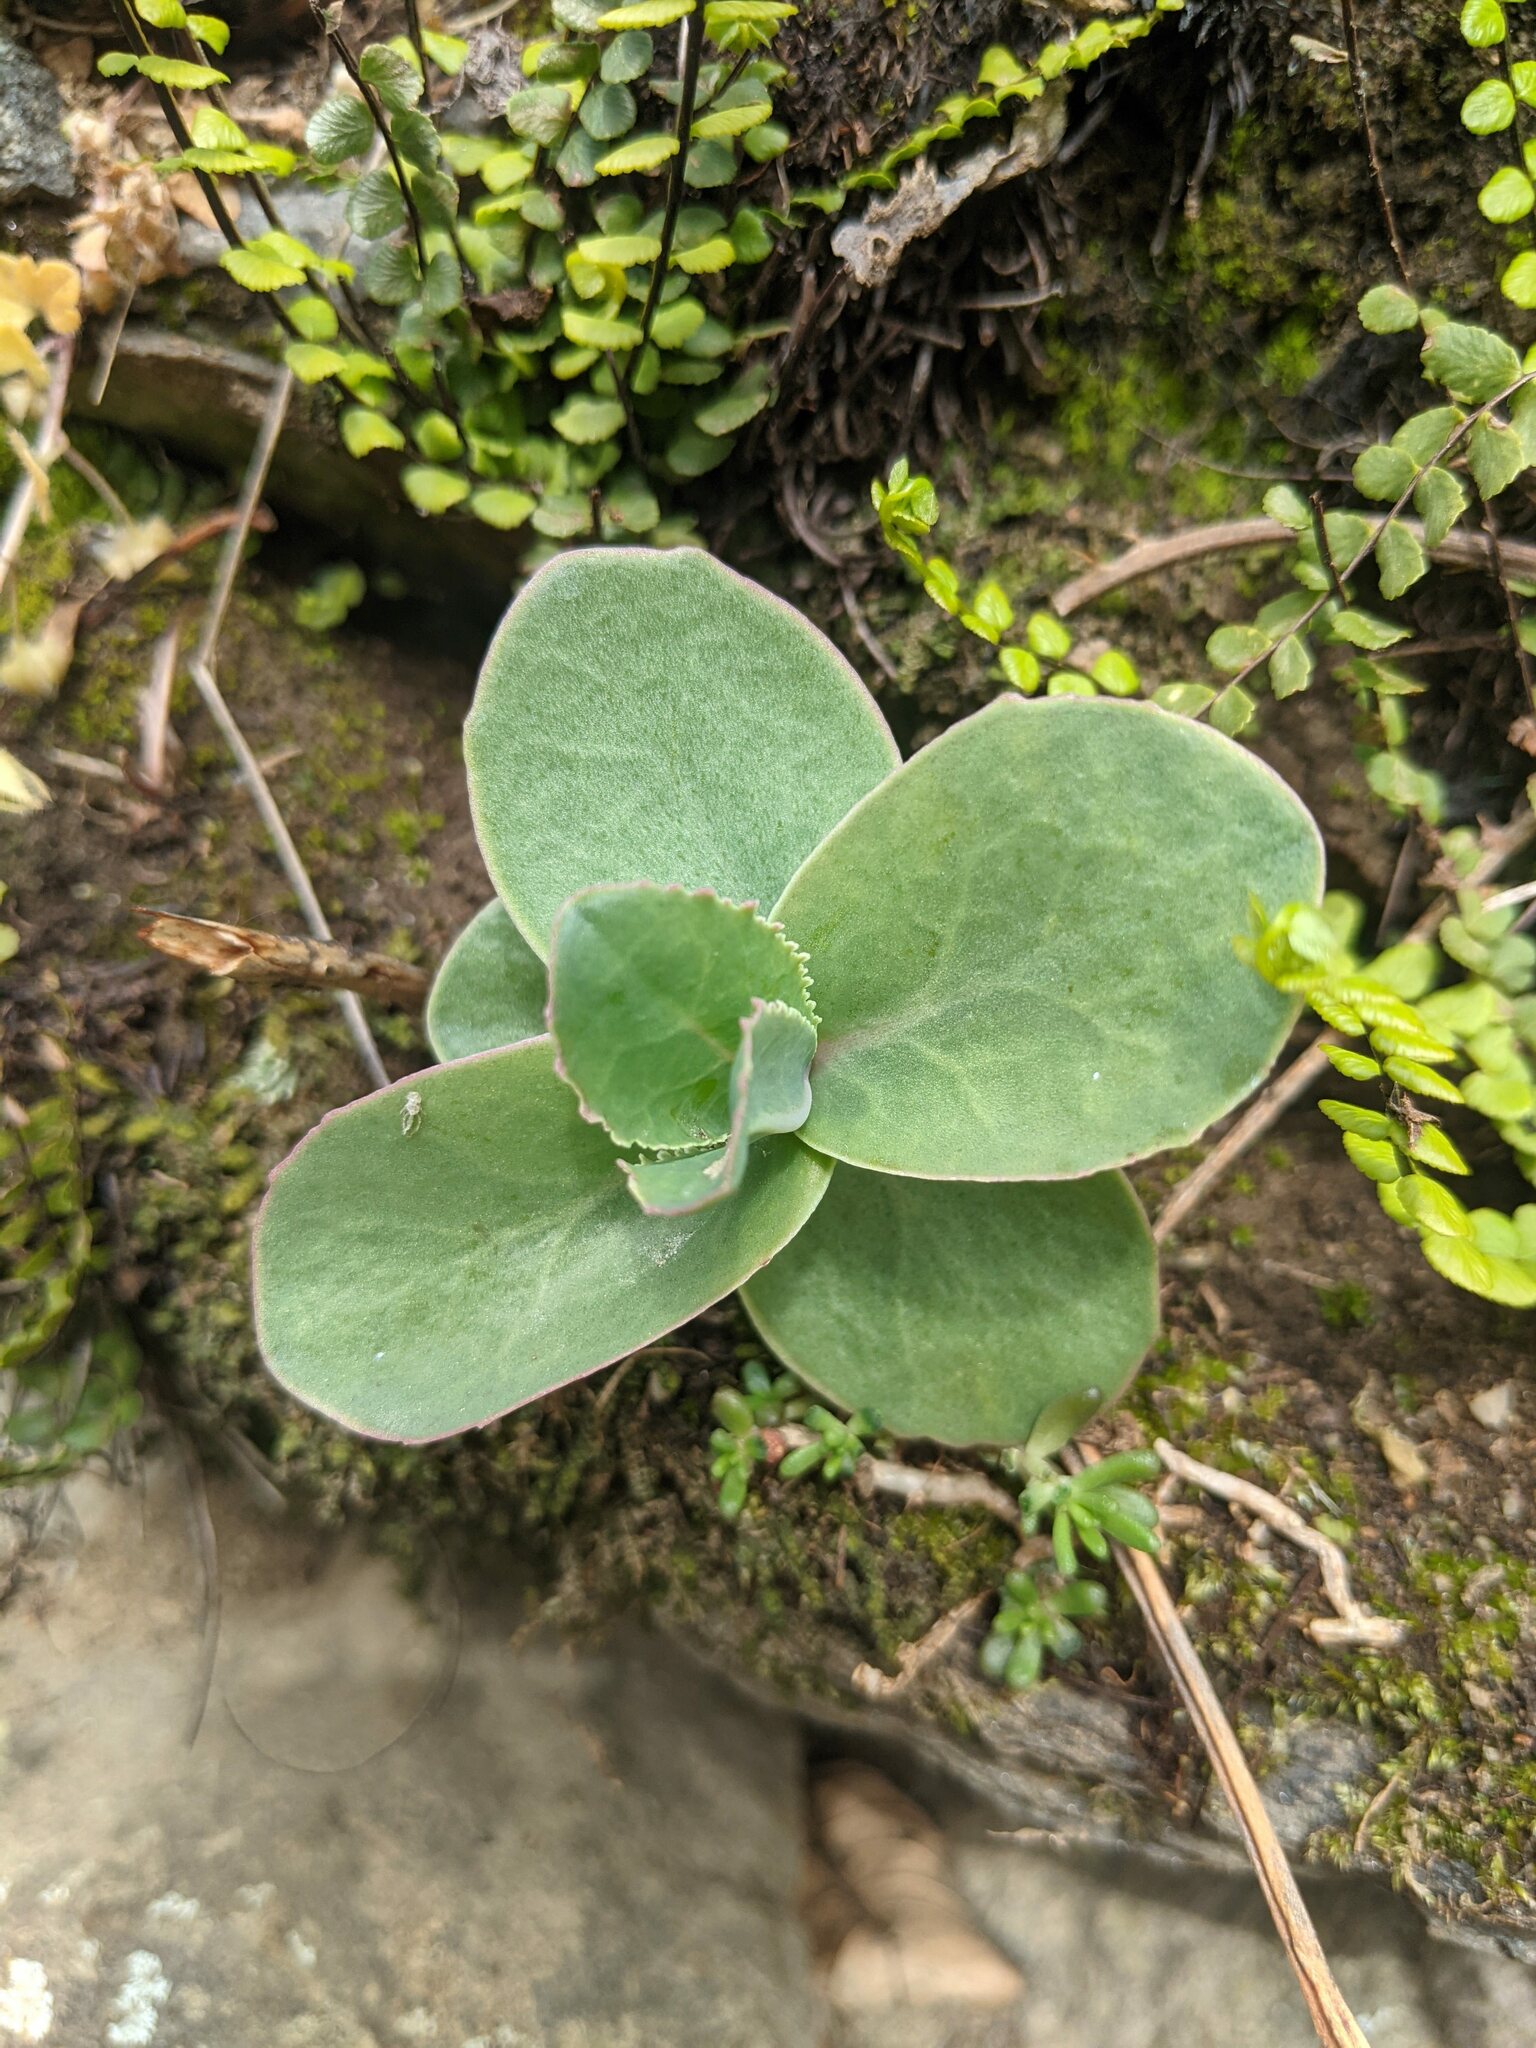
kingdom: Plantae
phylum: Tracheophyta
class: Magnoliopsida
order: Saxifragales
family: Crassulaceae
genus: Hylotelephium
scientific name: Hylotelephium maximum
